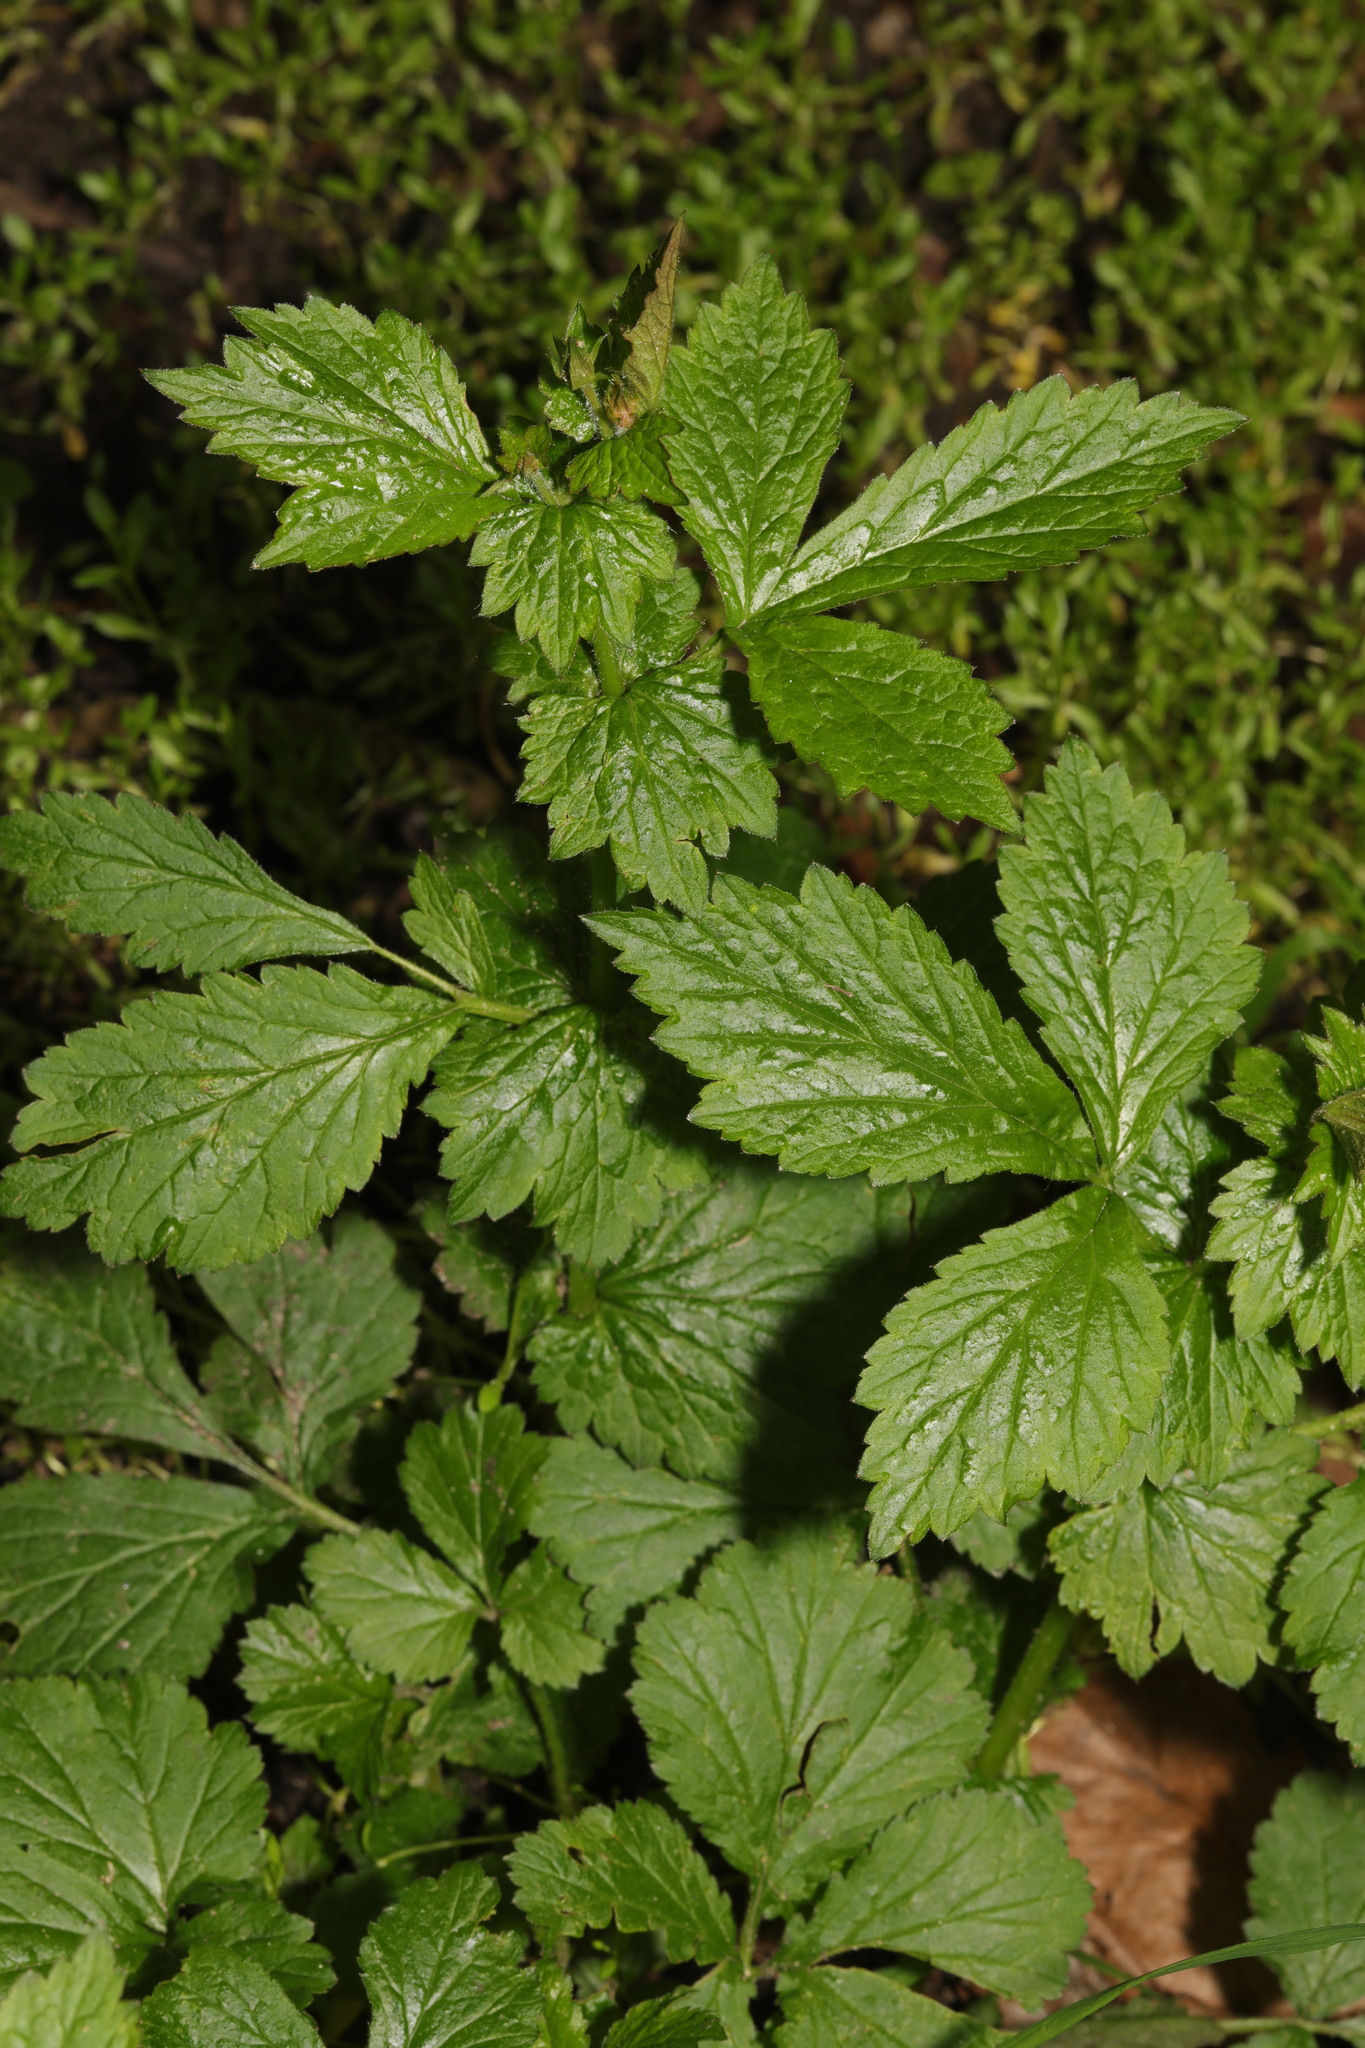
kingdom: Plantae
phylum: Tracheophyta
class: Magnoliopsida
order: Rosales
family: Rosaceae
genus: Geum
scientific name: Geum urbanum
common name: Wood avens
